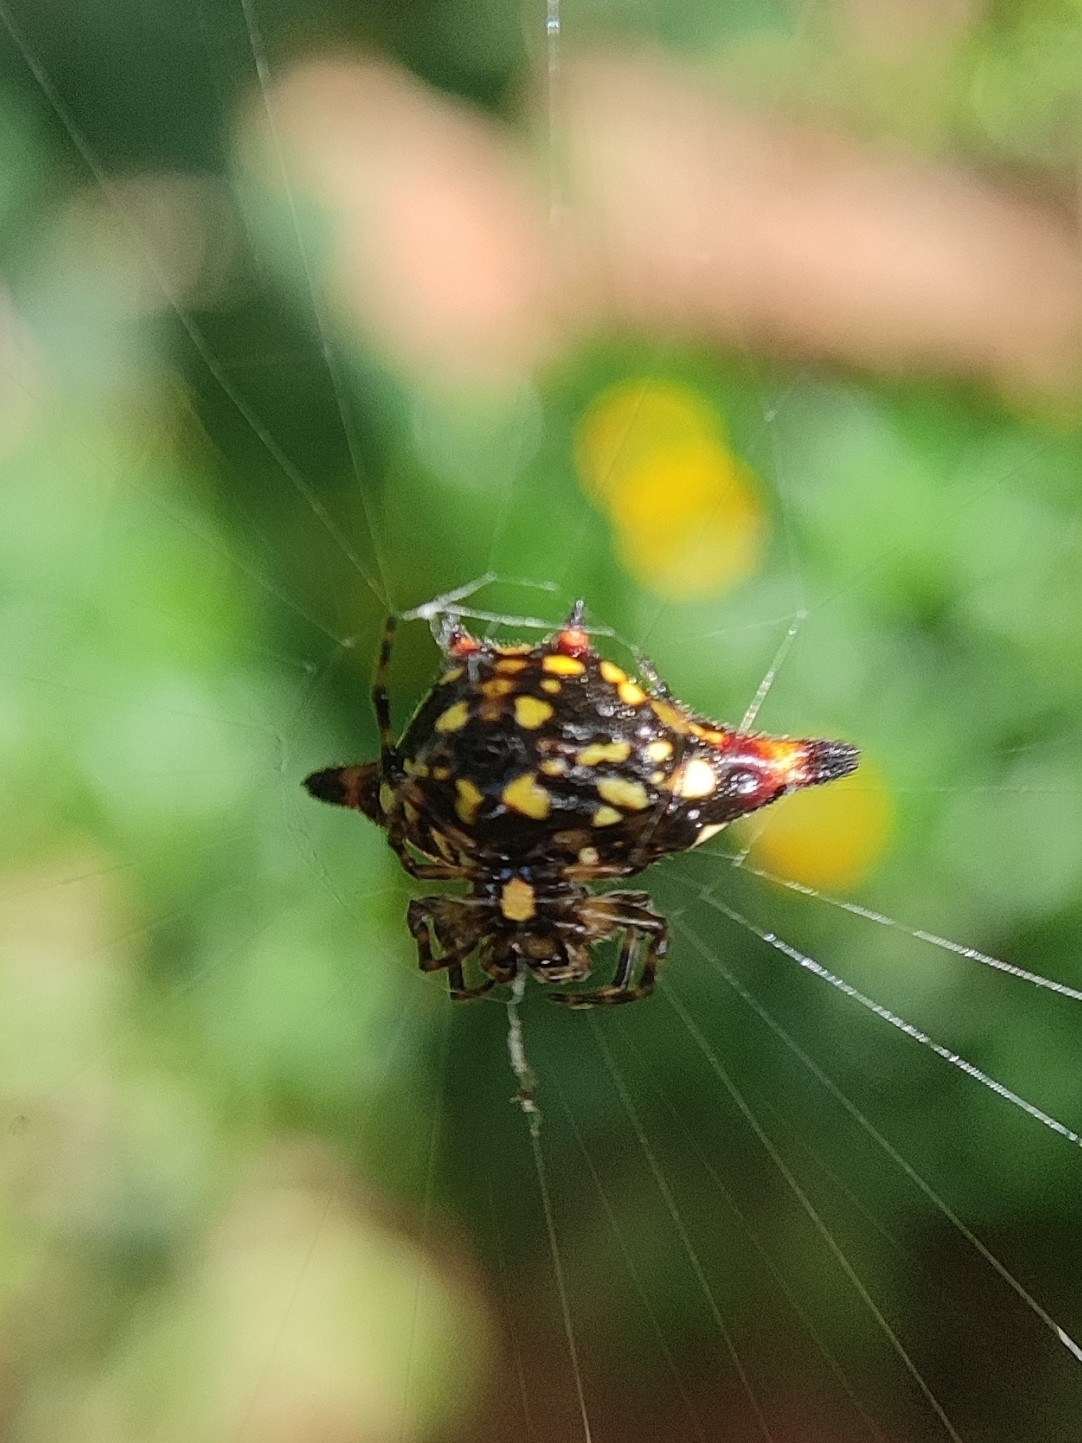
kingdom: Animalia
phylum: Arthropoda
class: Arachnida
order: Araneae
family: Araneidae
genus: Gasteracantha
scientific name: Gasteracantha geminata
